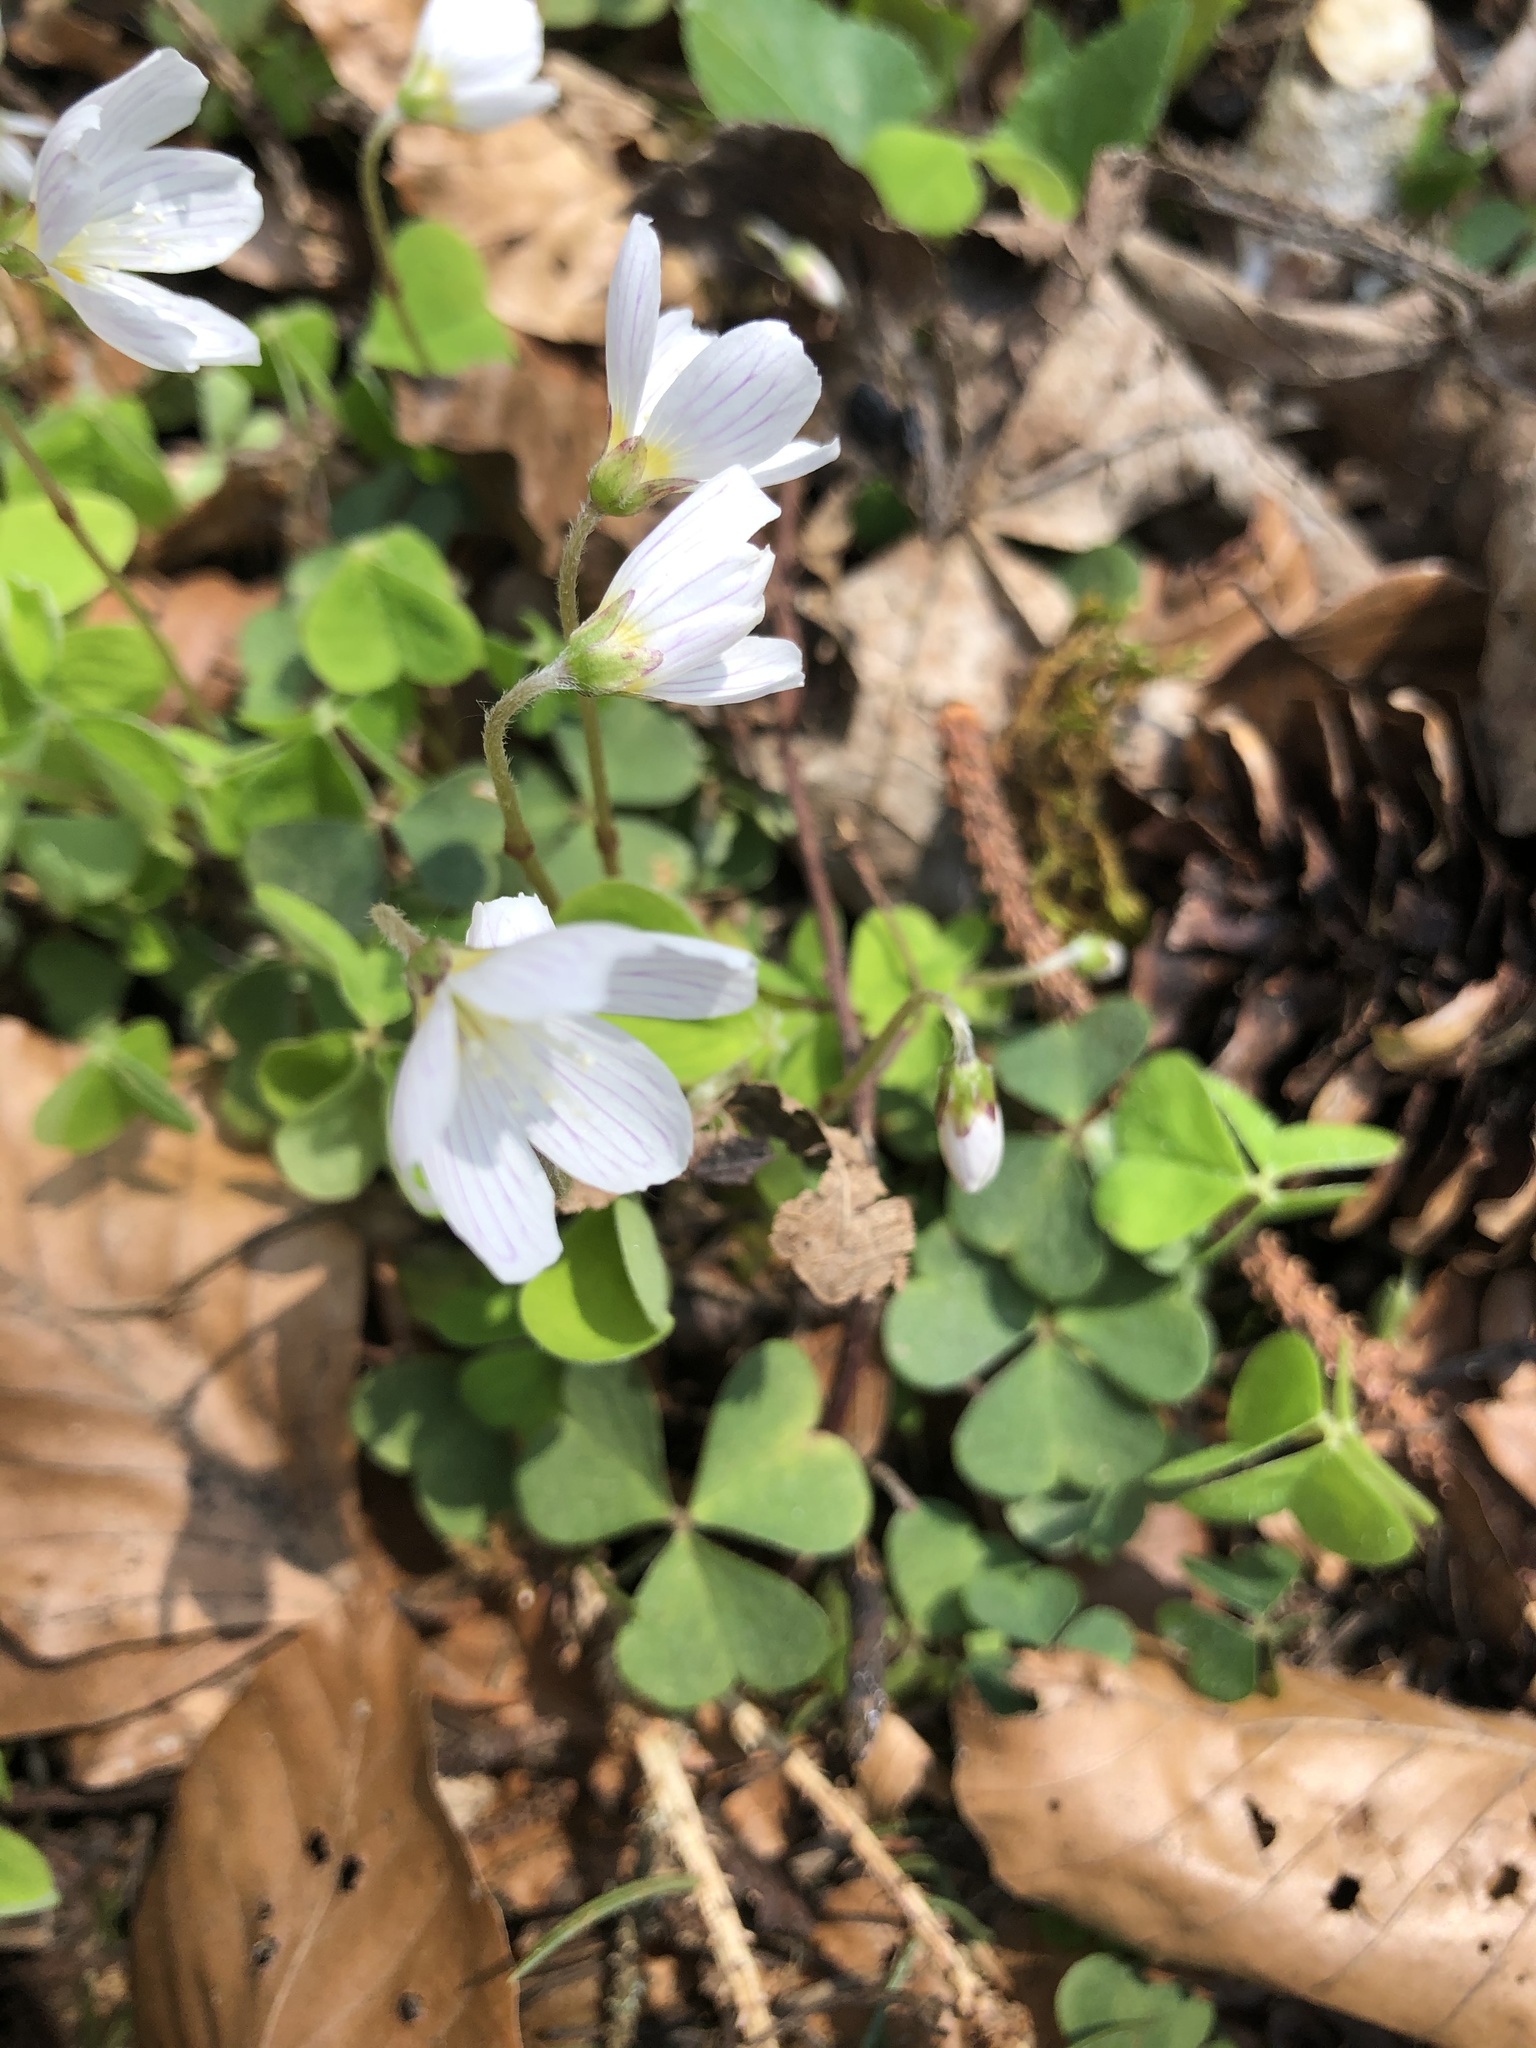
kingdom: Plantae
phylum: Tracheophyta
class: Magnoliopsida
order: Oxalidales
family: Oxalidaceae
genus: Oxalis
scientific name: Oxalis acetosella
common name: Wood-sorrel
